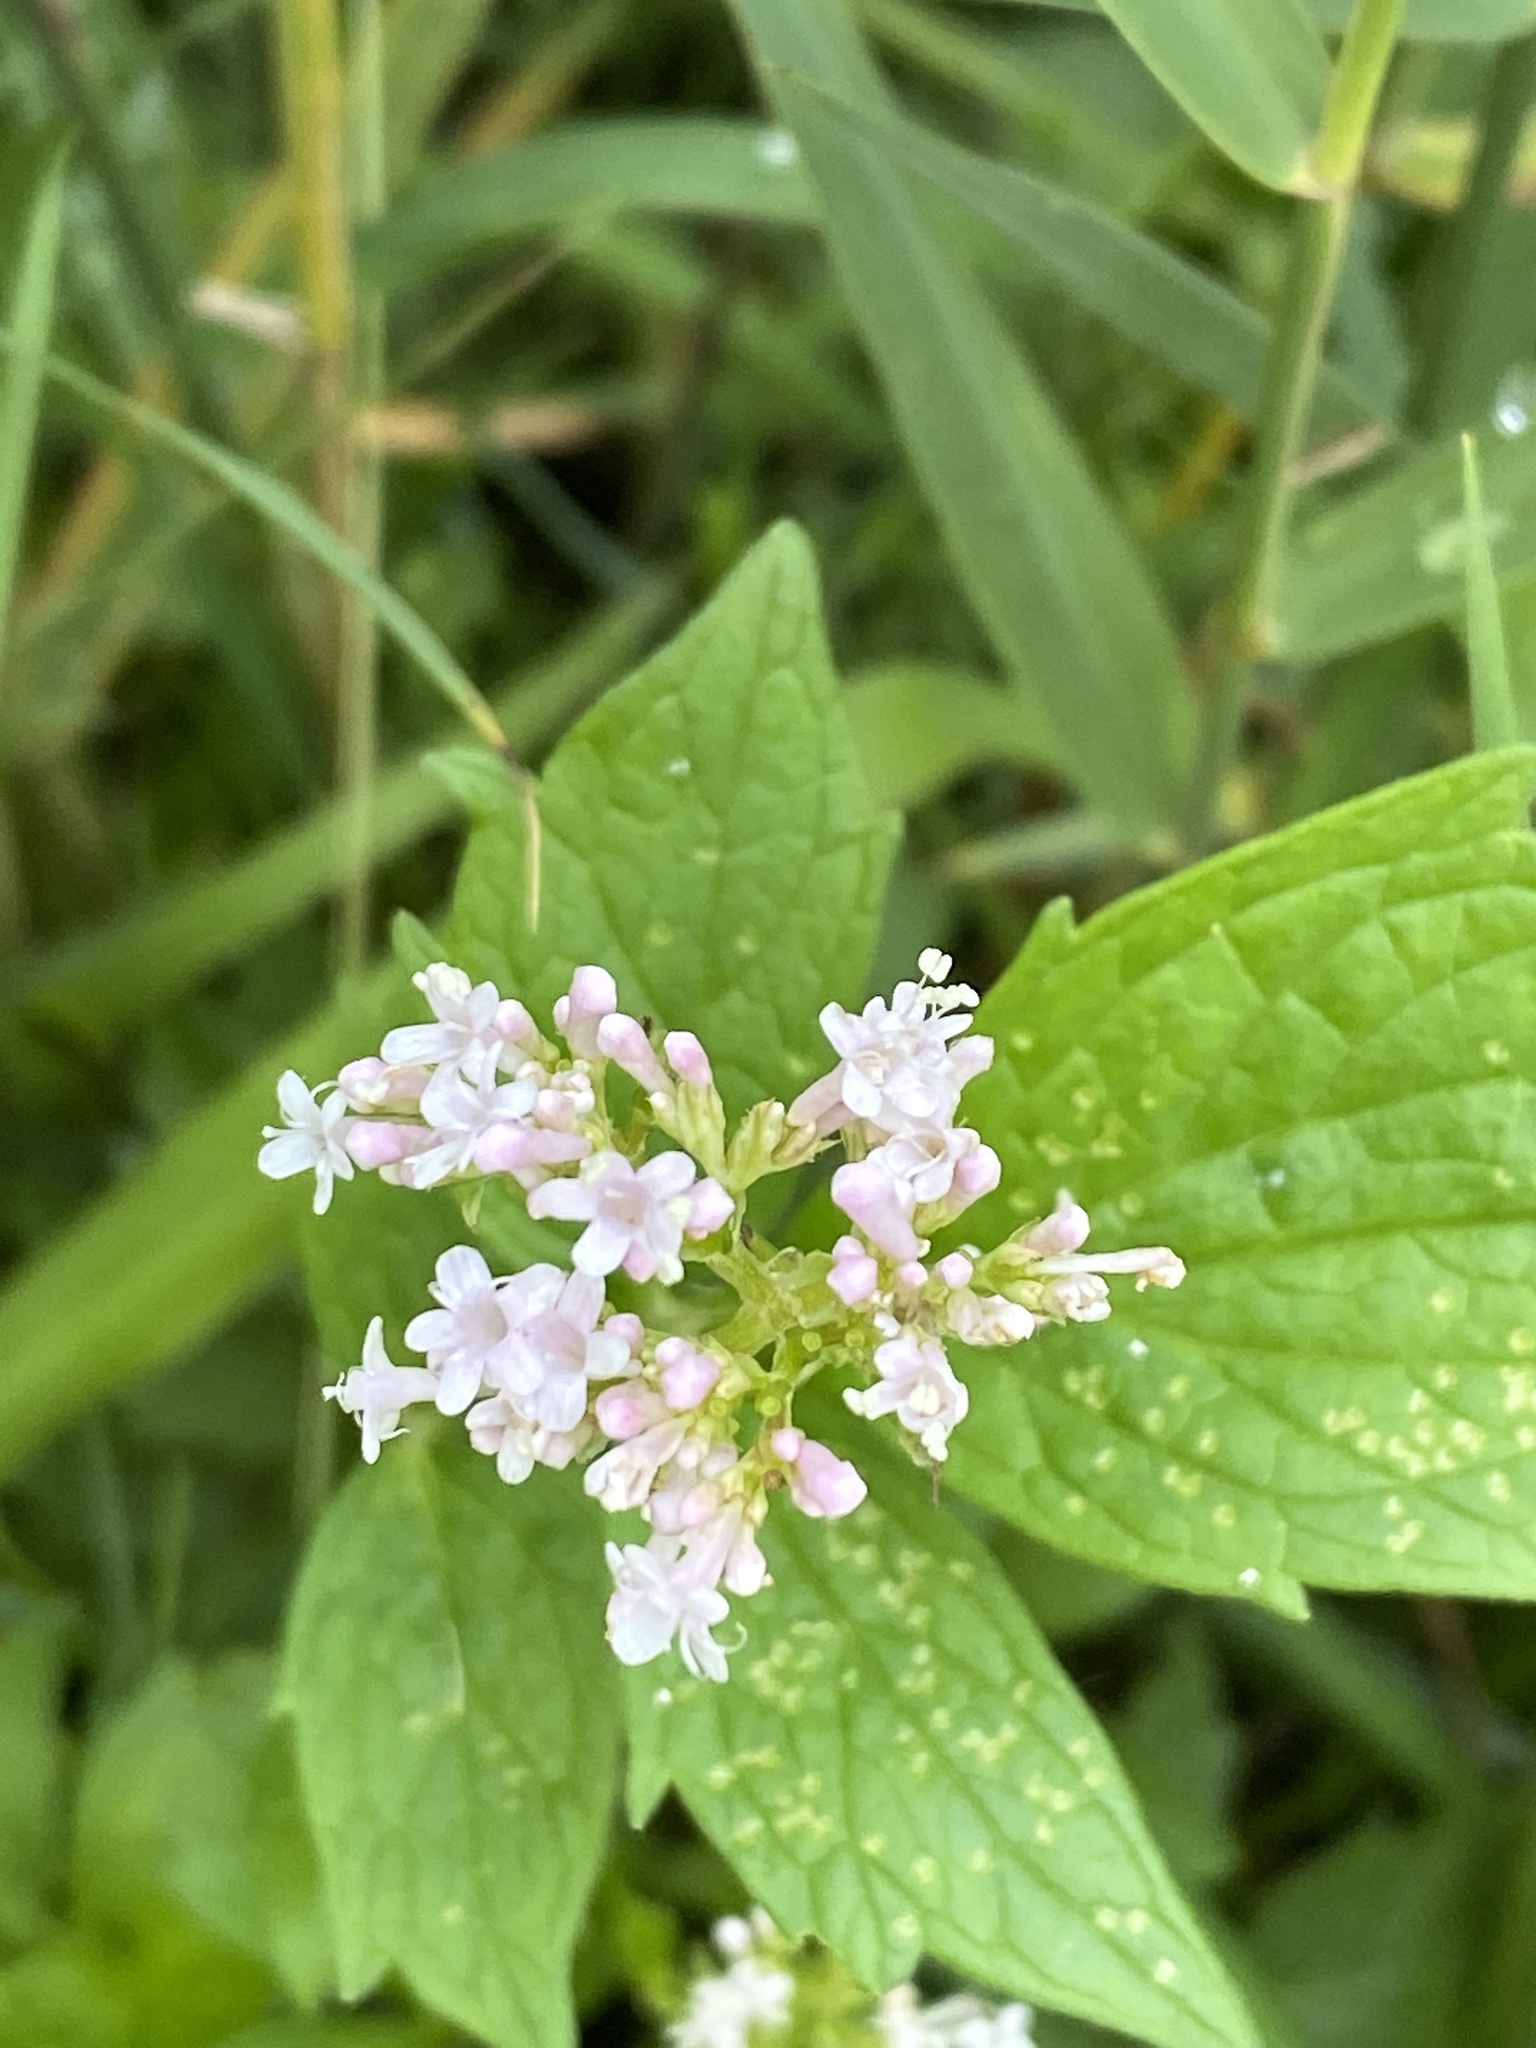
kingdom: Plantae
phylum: Tracheophyta
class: Magnoliopsida
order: Dipsacales
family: Caprifoliaceae
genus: Valeriana
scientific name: Valeriana officinalis
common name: Common valerian
